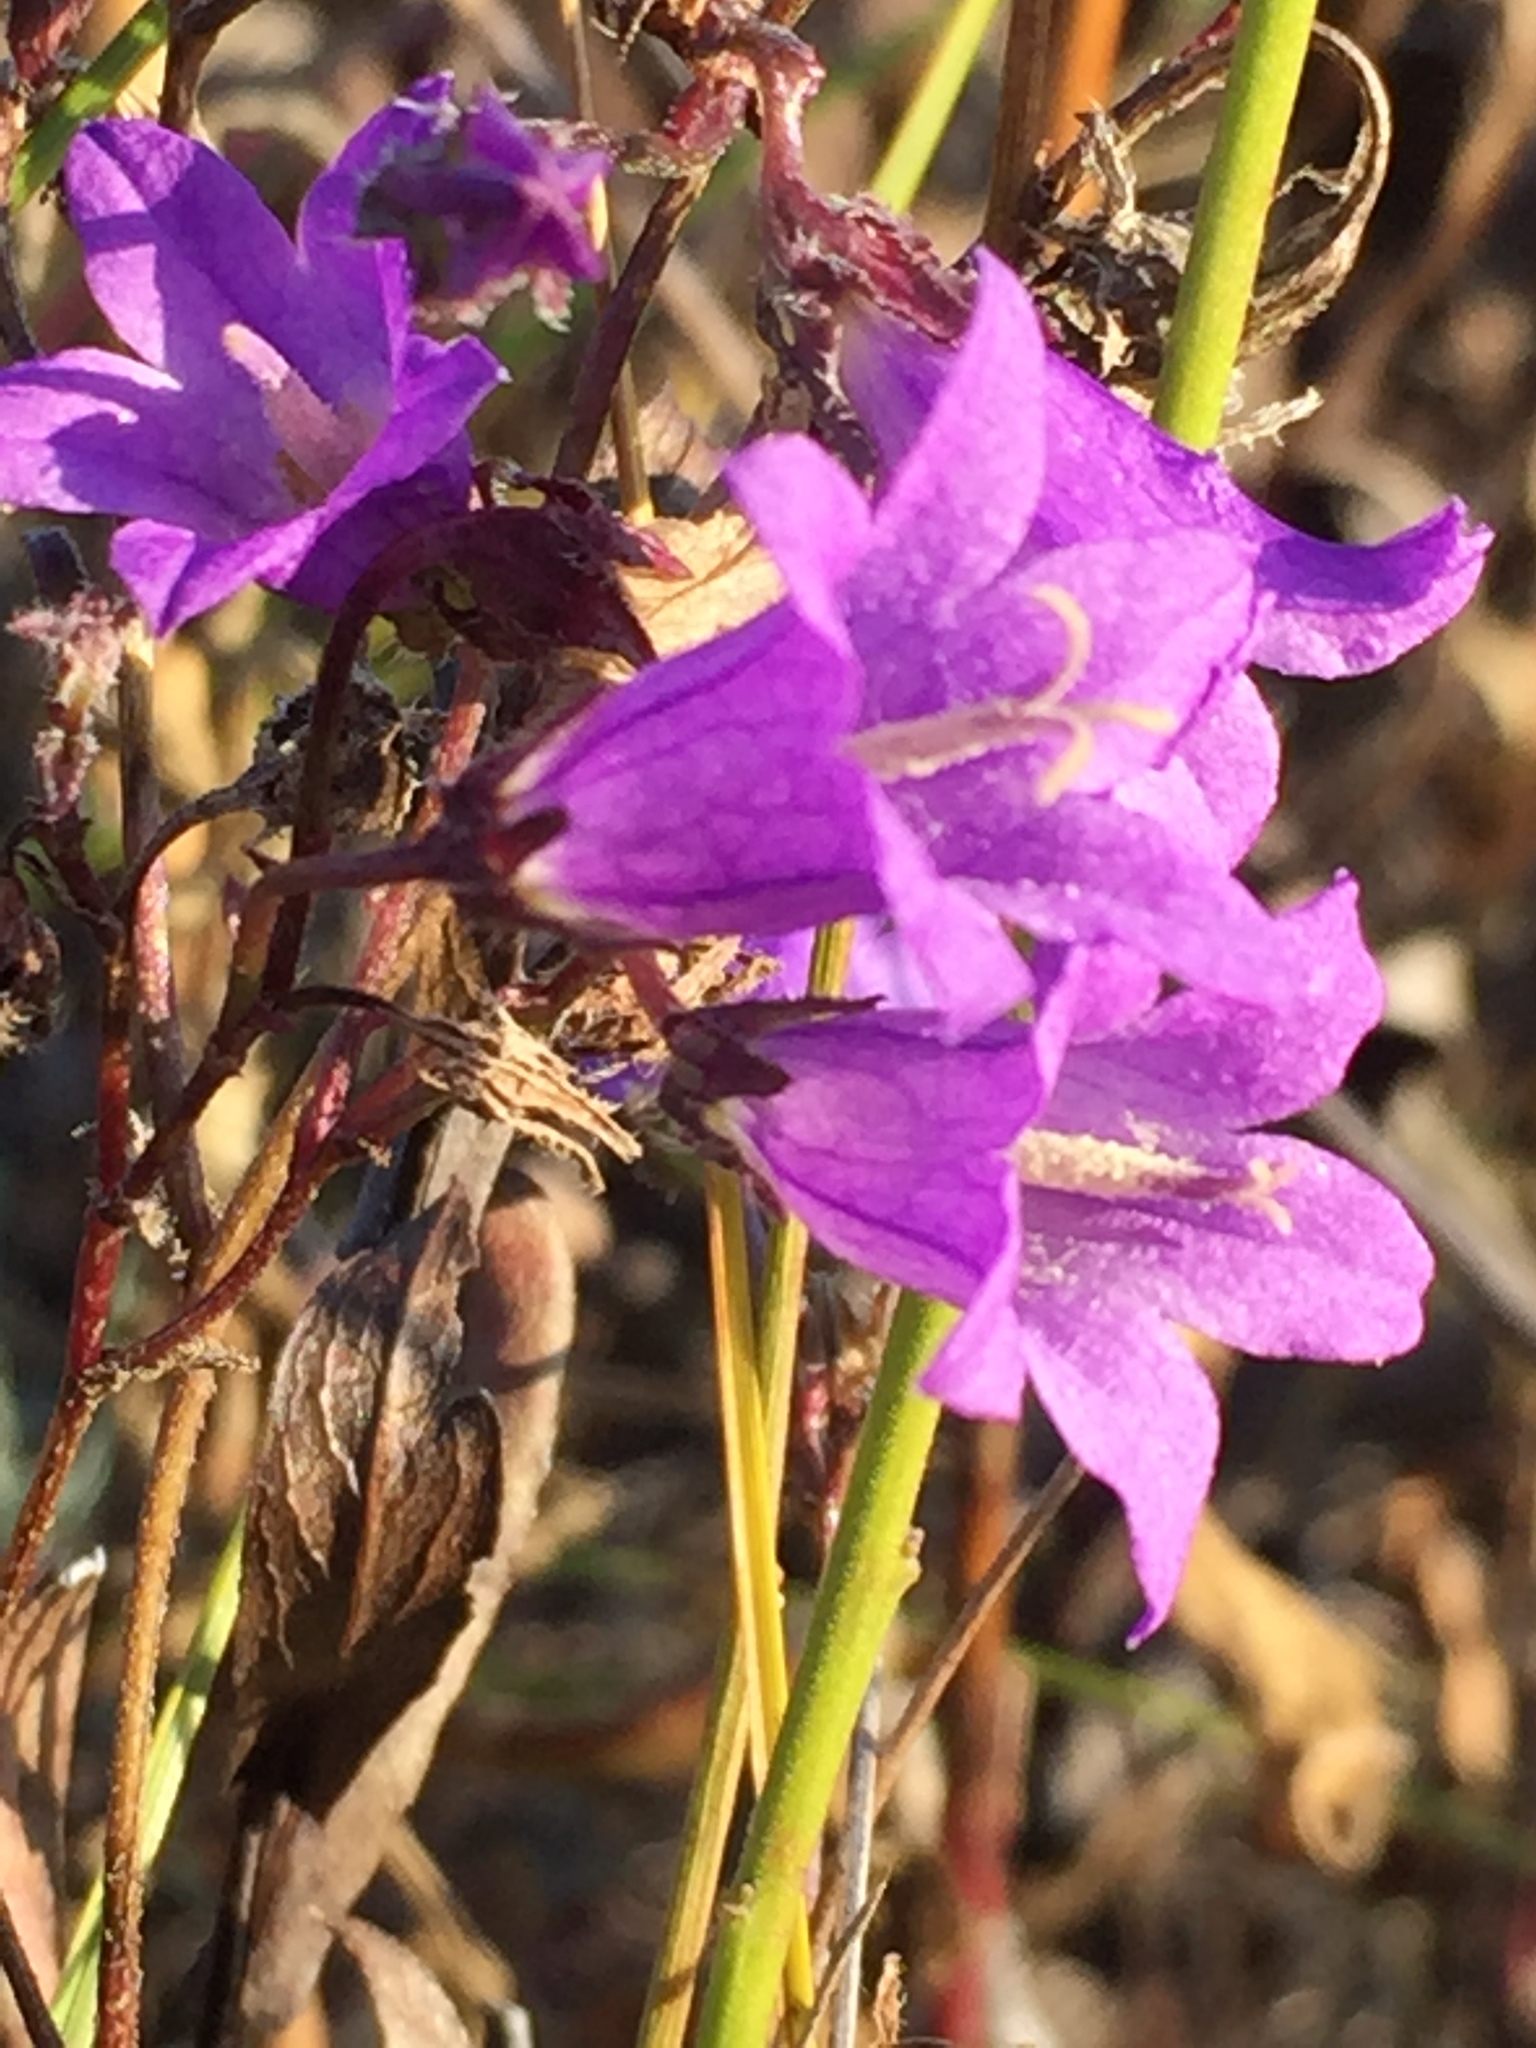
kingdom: Plantae
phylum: Tracheophyta
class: Magnoliopsida
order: Asterales
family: Campanulaceae
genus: Campanula
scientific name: Campanula sibirica
